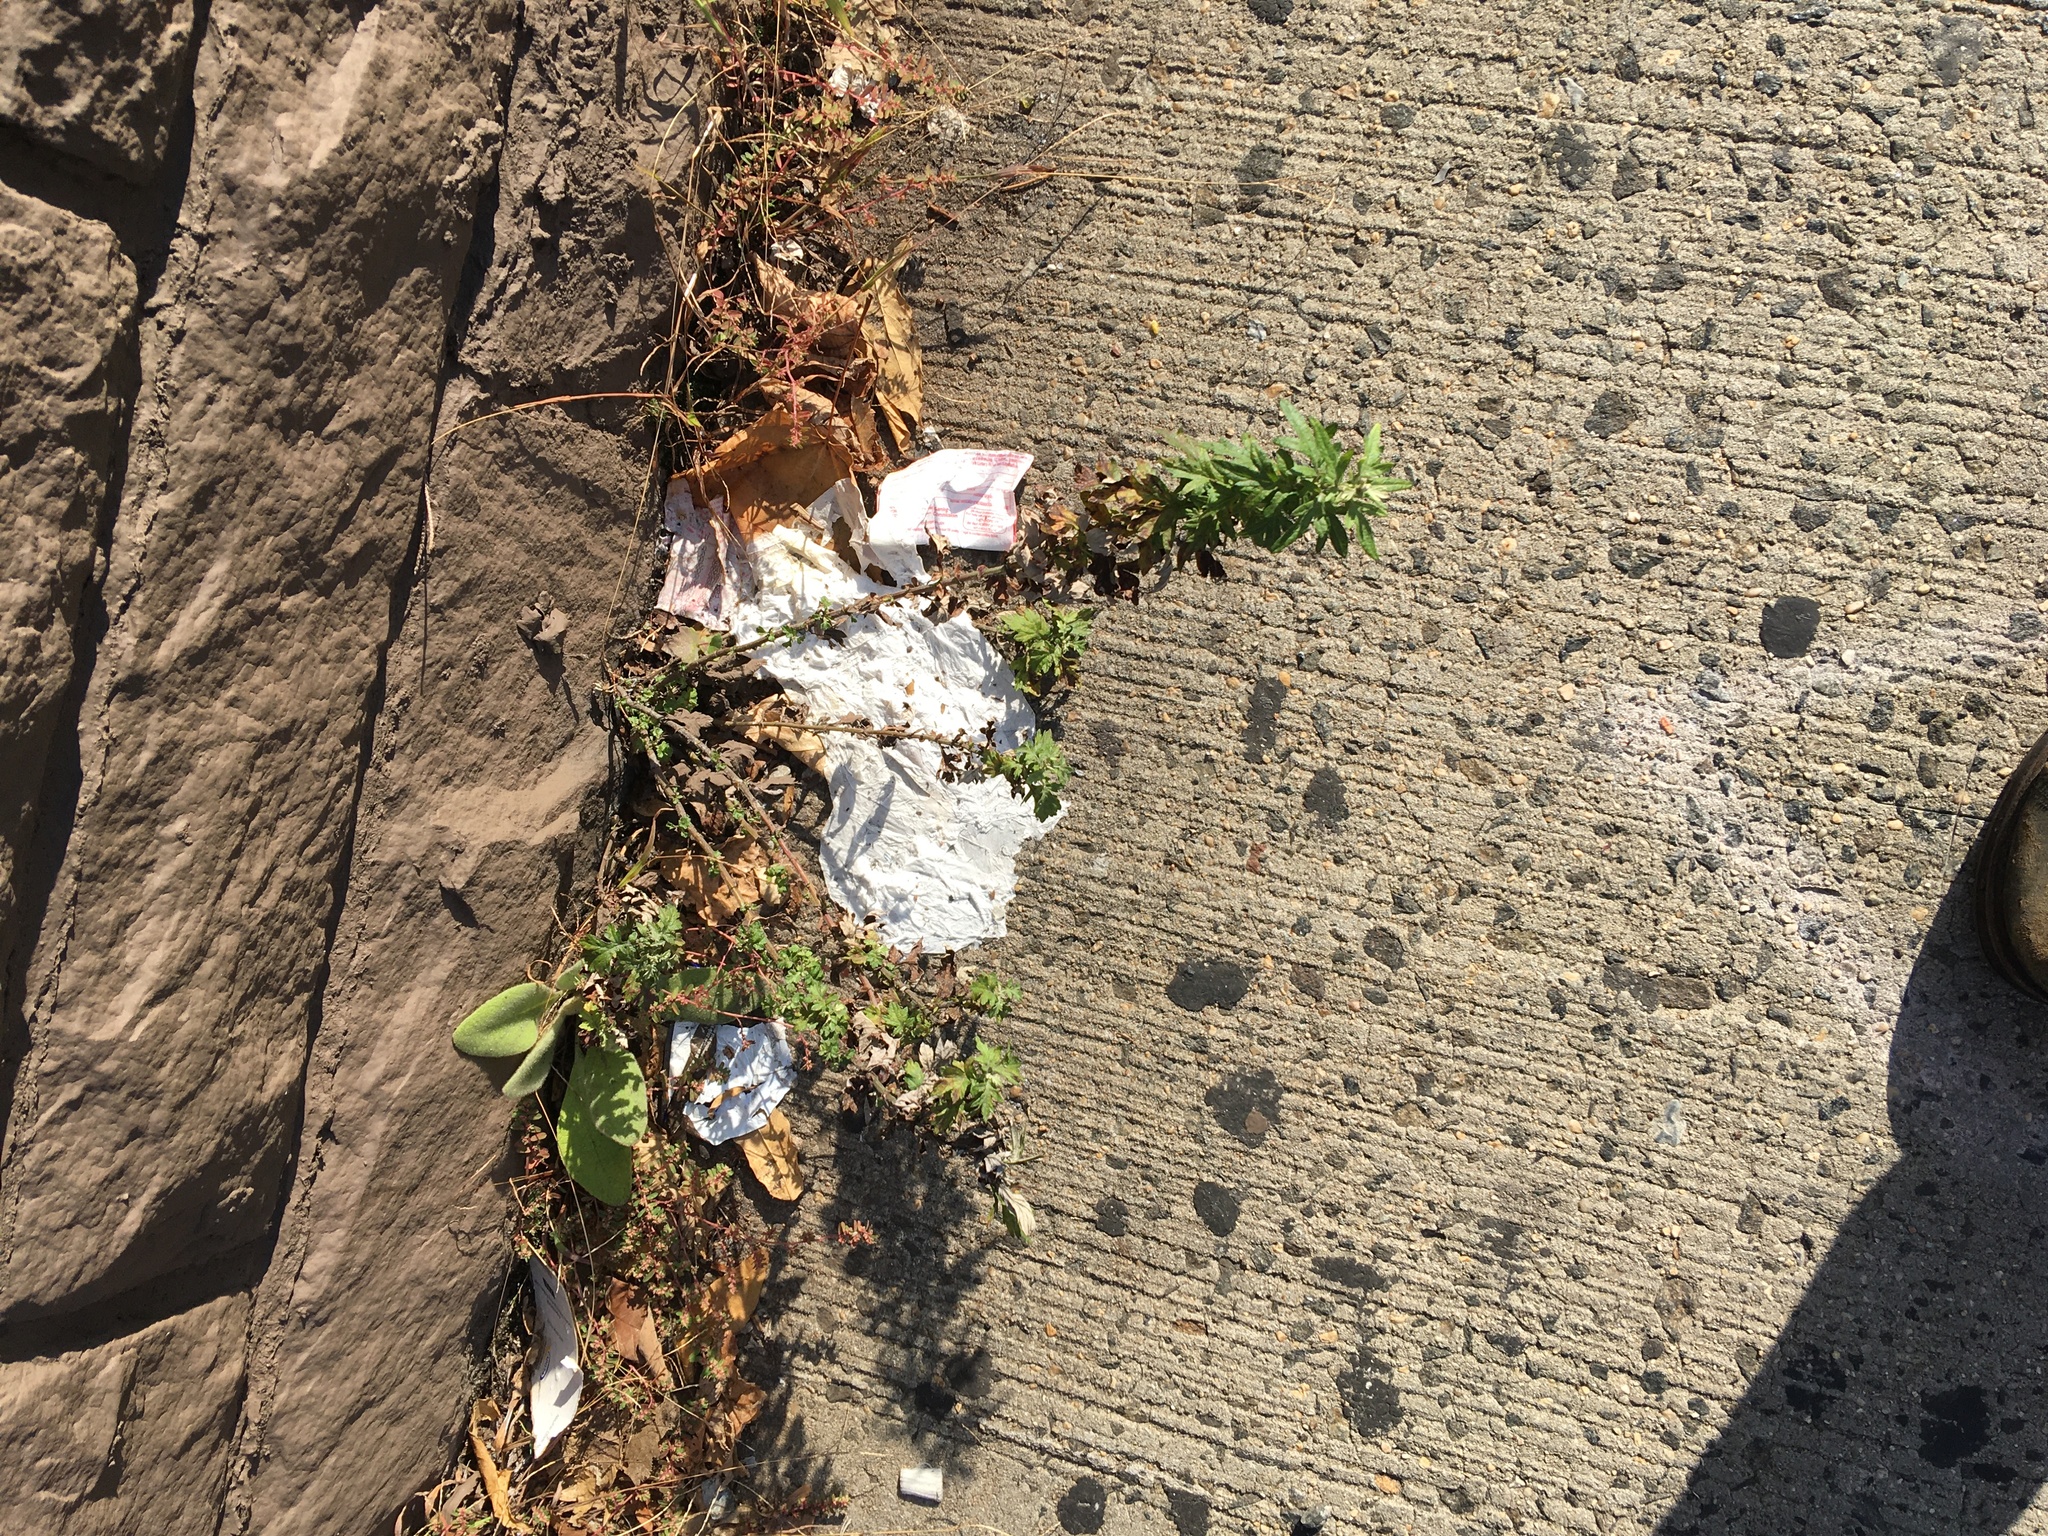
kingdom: Plantae
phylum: Tracheophyta
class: Magnoliopsida
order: Asterales
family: Asteraceae
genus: Artemisia
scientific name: Artemisia vulgaris
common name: Mugwort
